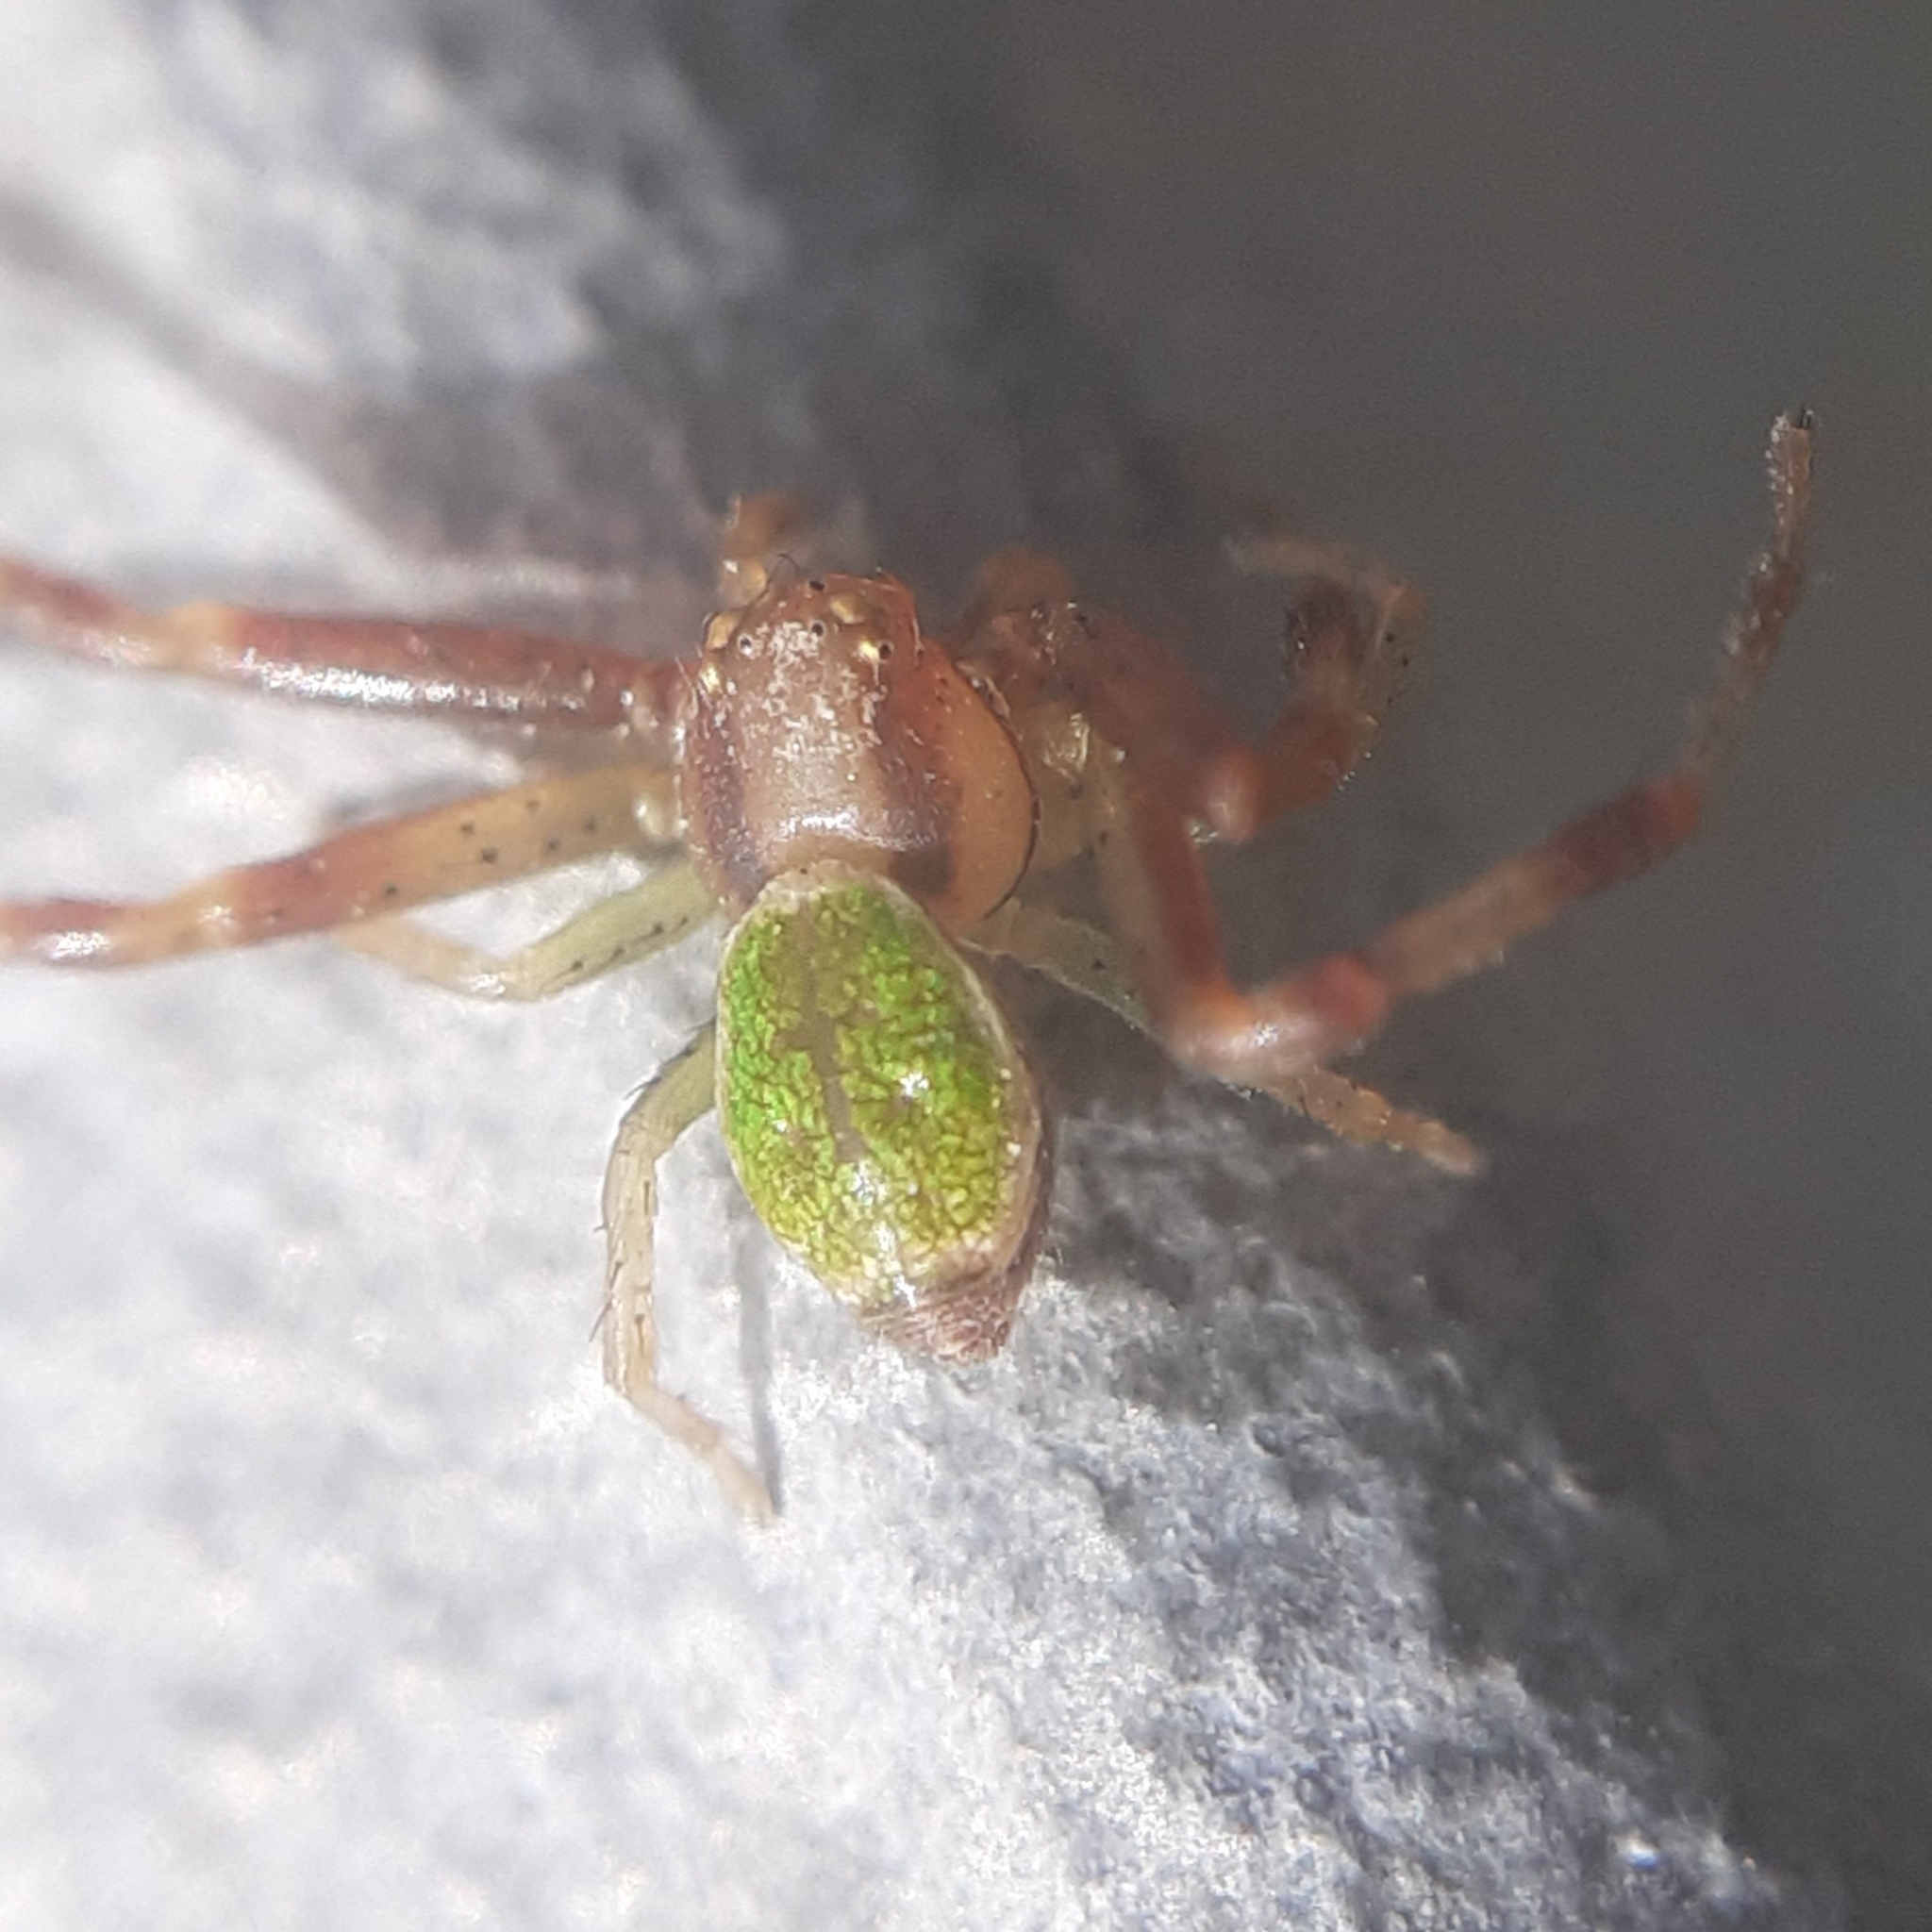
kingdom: Animalia
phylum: Arthropoda
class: Arachnida
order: Araneae
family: Thomisidae
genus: Ebrechtella
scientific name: Ebrechtella tricuspidata
